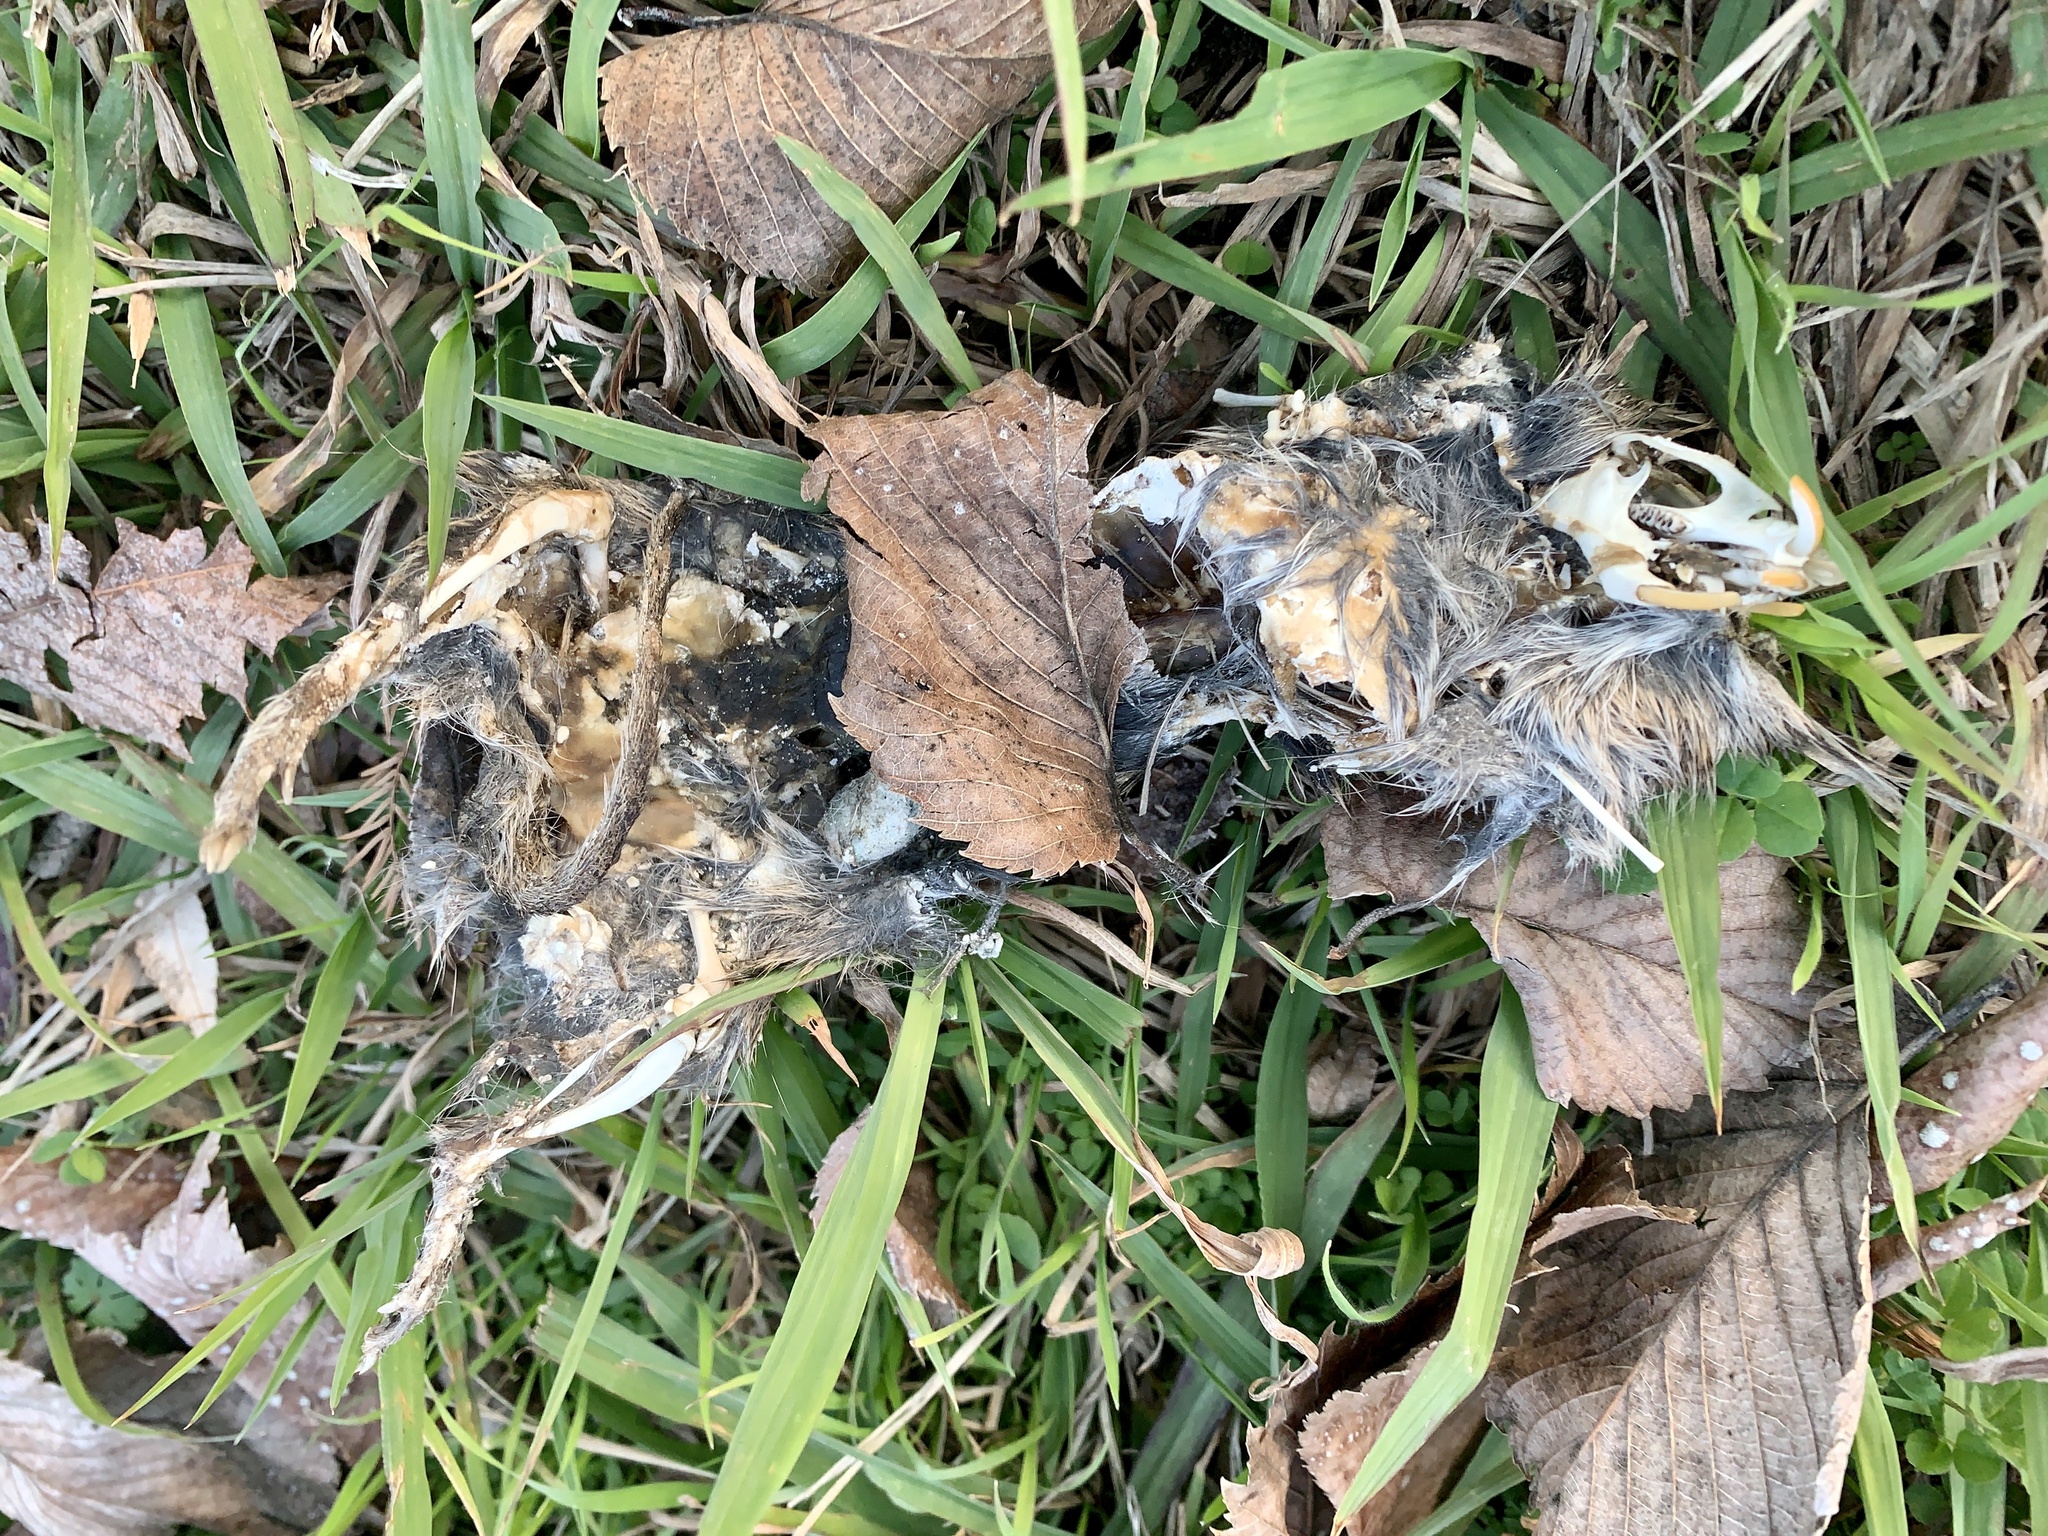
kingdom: Animalia
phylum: Chordata
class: Mammalia
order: Rodentia
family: Cricetidae
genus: Sigmodon
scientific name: Sigmodon hispidus
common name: Hispid cotton rat
